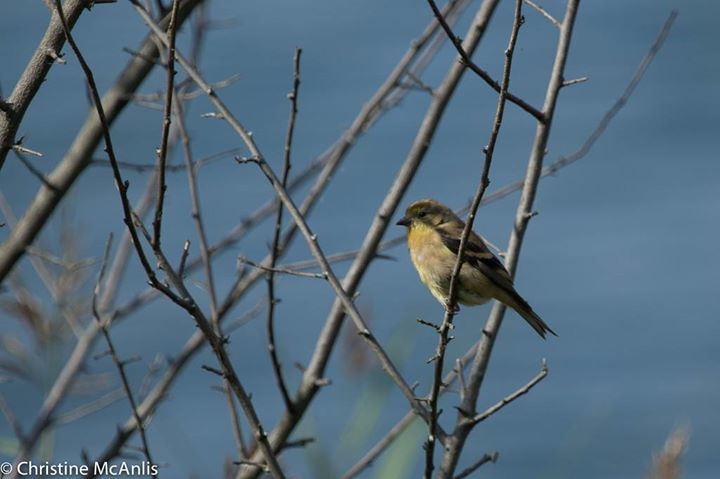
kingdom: Animalia
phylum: Chordata
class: Aves
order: Passeriformes
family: Fringillidae
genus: Spinus
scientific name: Spinus tristis
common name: American goldfinch
